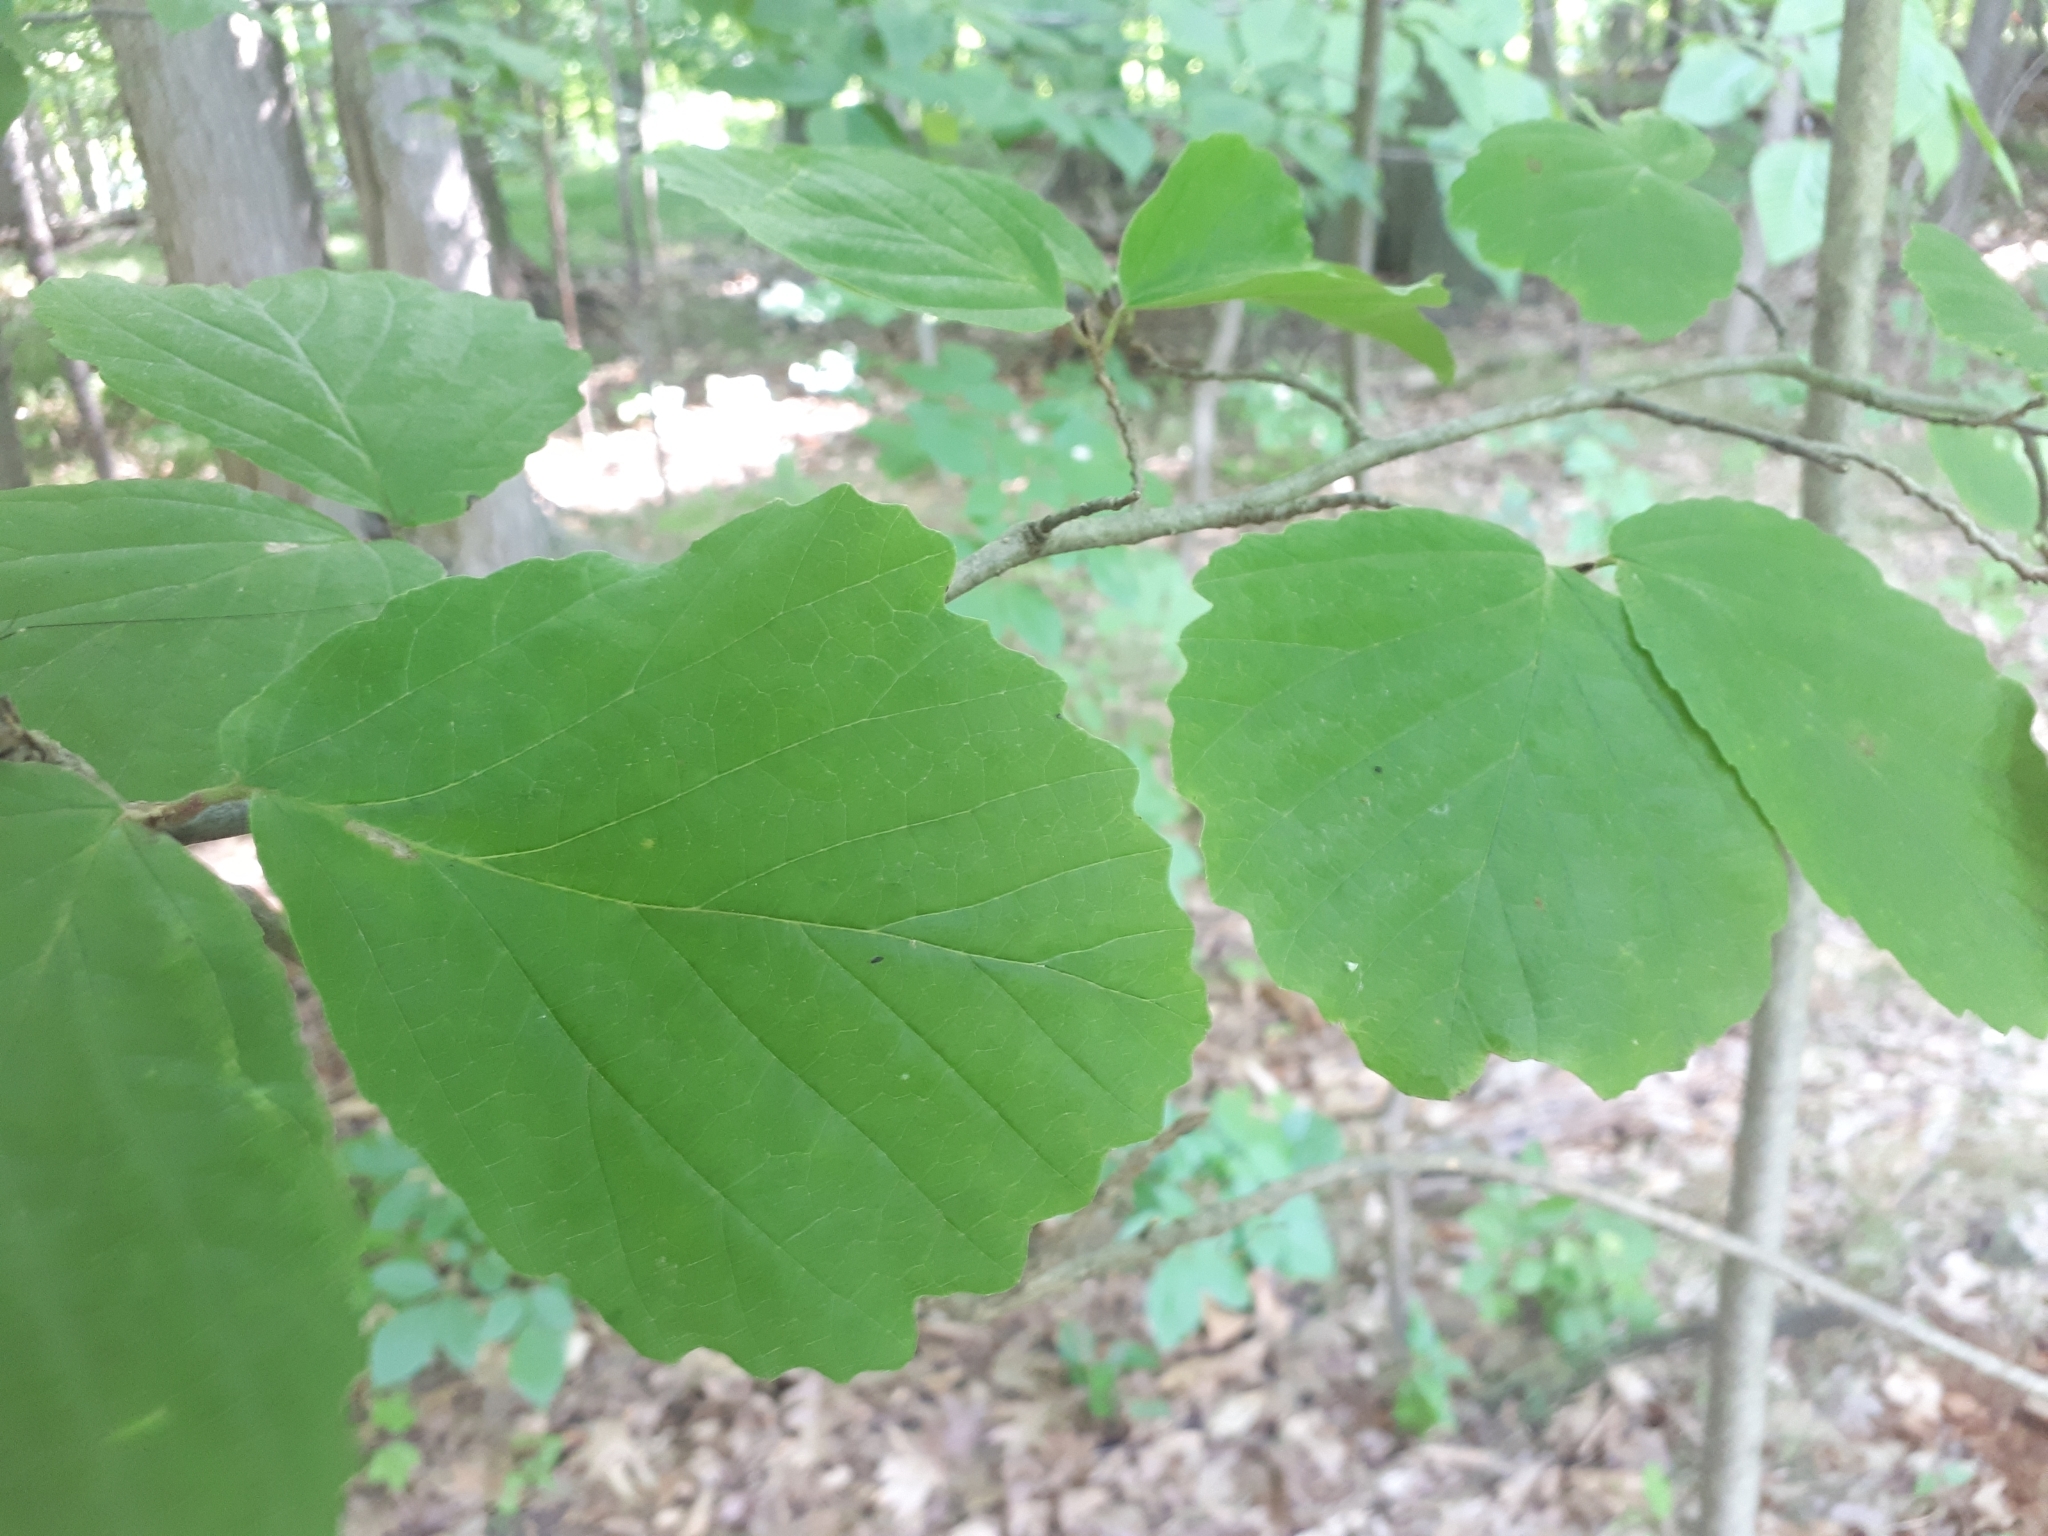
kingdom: Plantae
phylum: Tracheophyta
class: Magnoliopsida
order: Saxifragales
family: Hamamelidaceae
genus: Hamamelis
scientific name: Hamamelis virginiana
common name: Witch-hazel
